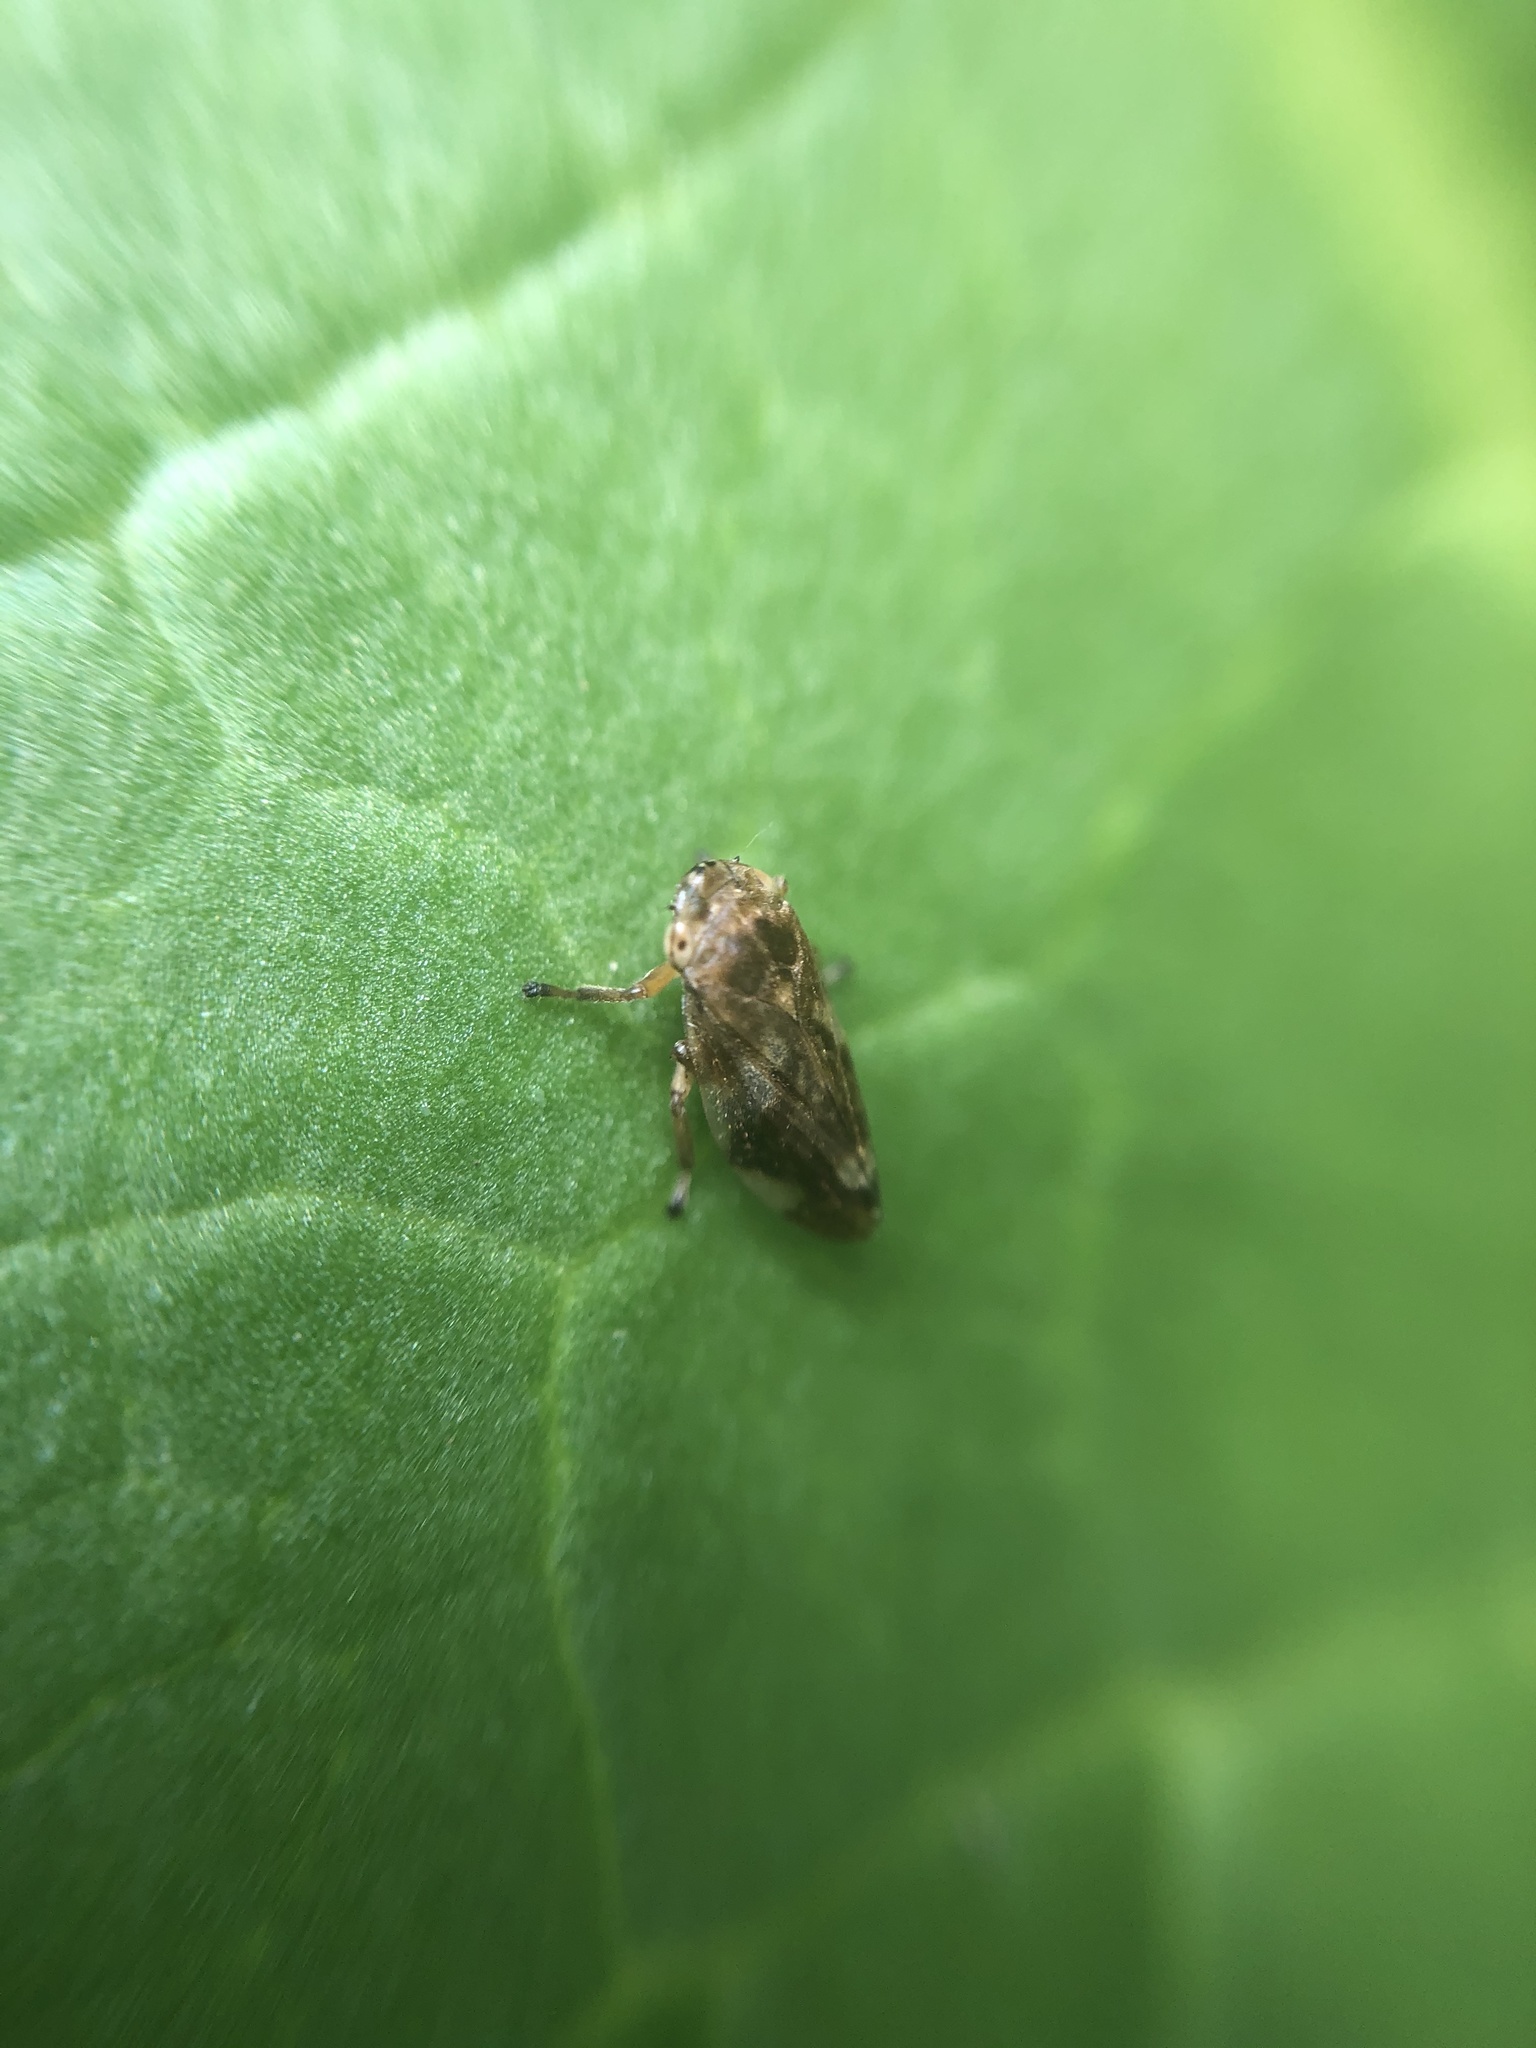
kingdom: Animalia
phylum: Arthropoda
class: Insecta
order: Hemiptera
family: Aphrophoridae
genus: Philaenus
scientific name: Philaenus spumarius
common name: Meadow spittlebug
